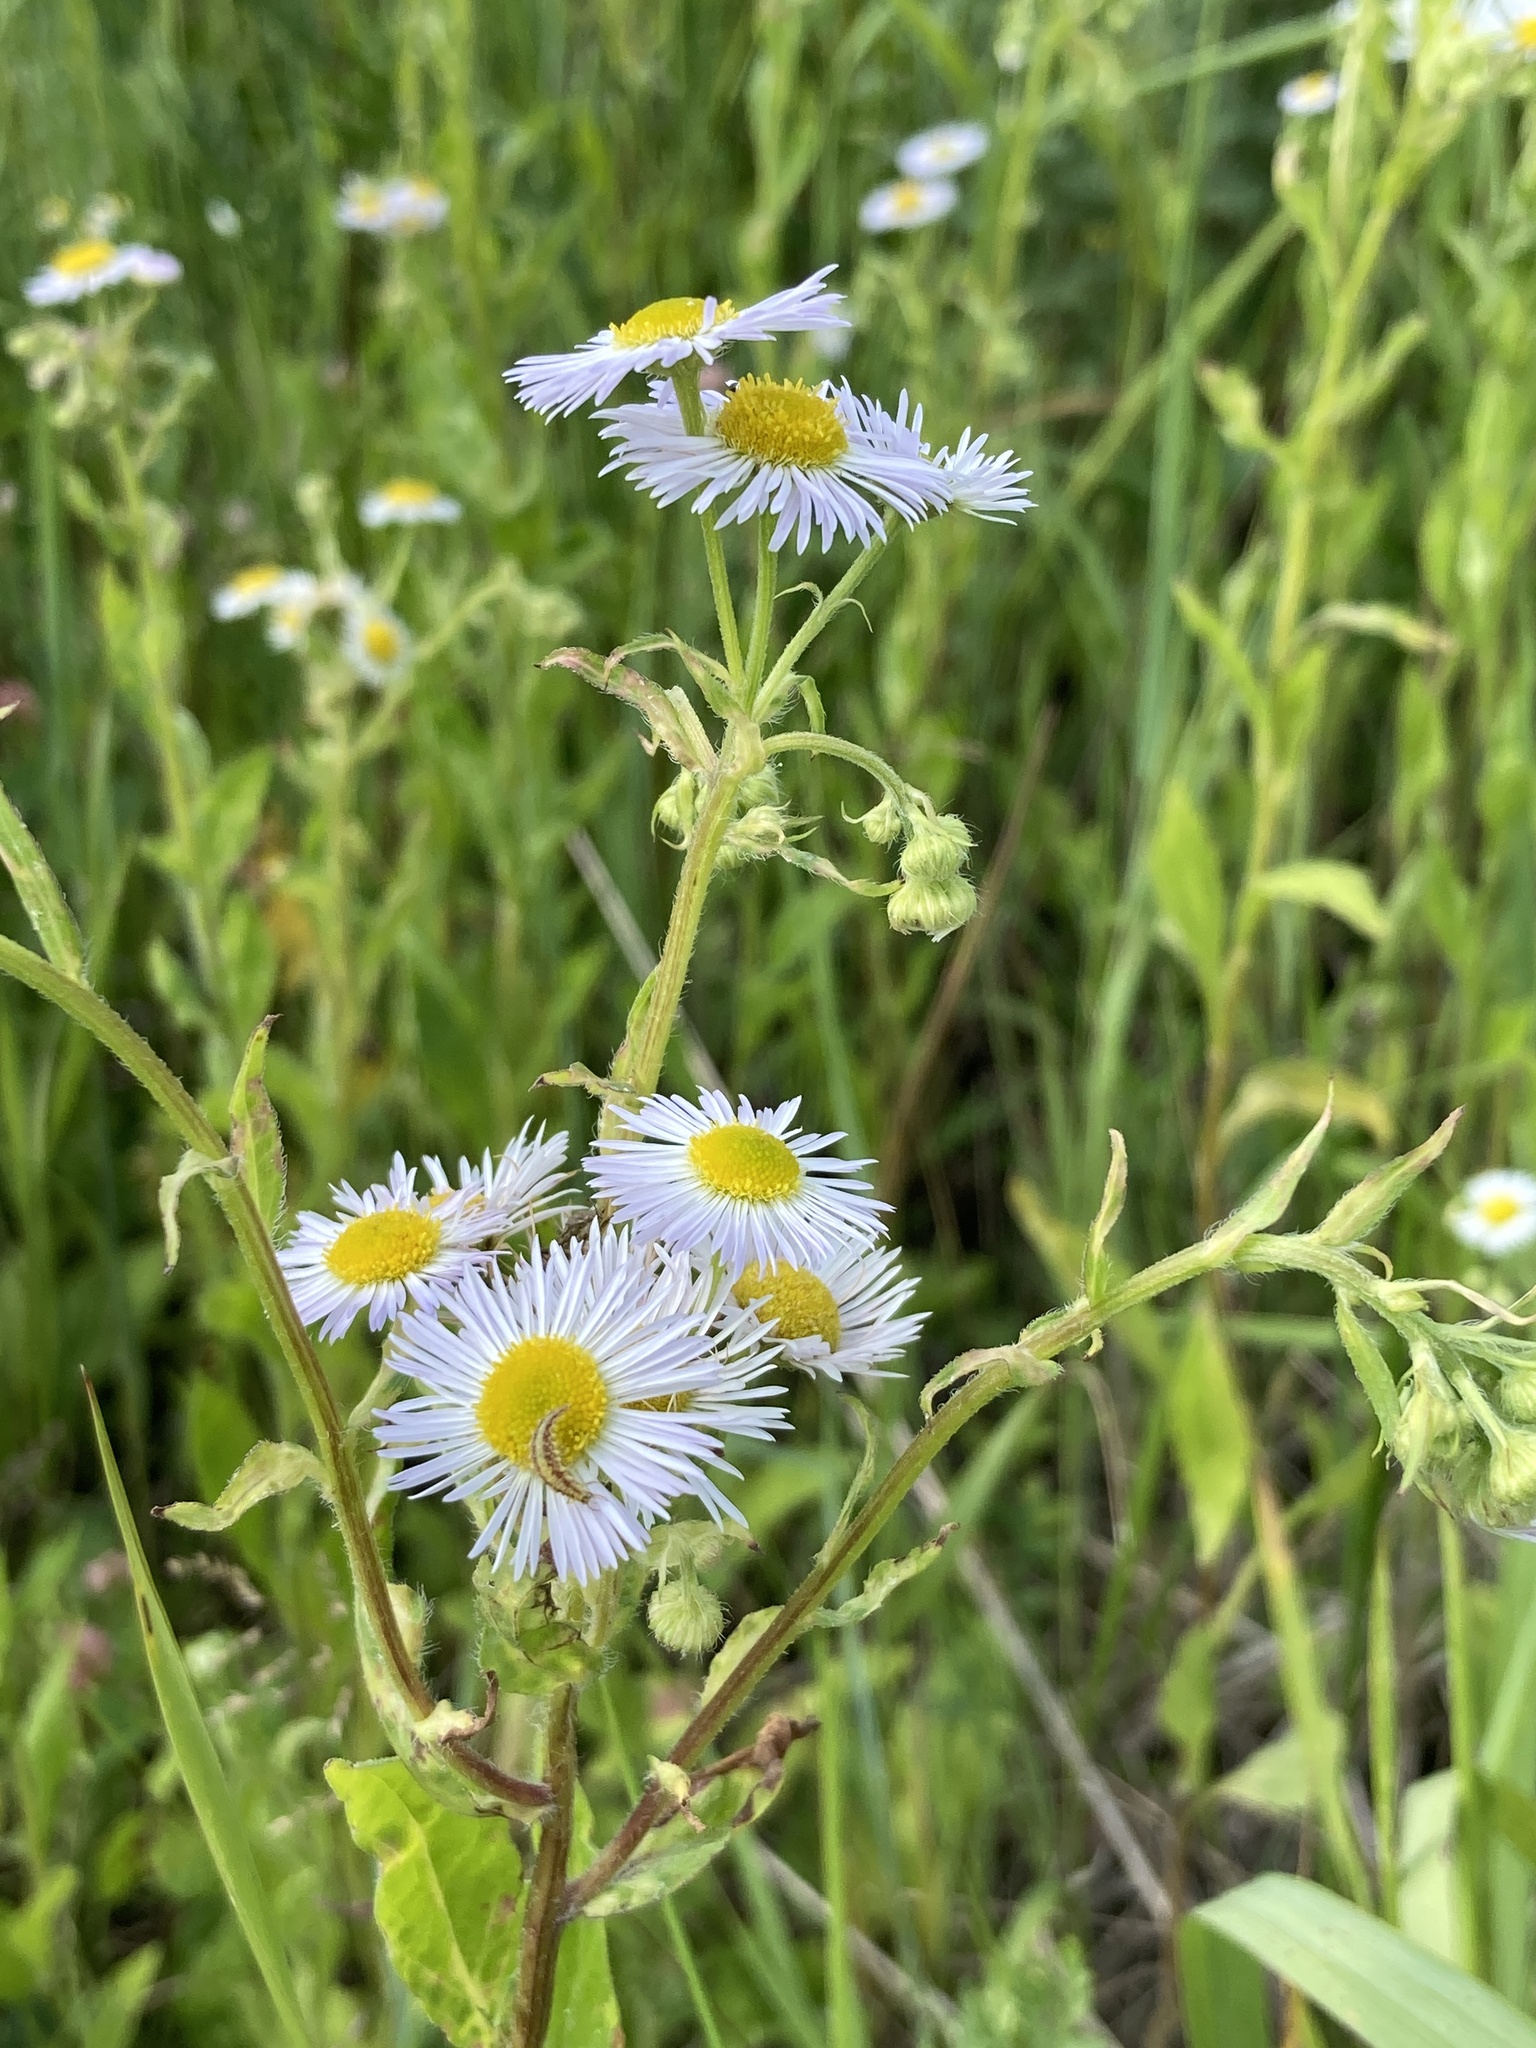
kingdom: Plantae
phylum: Tracheophyta
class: Magnoliopsida
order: Asterales
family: Asteraceae
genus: Erigeron
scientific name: Erigeron annuus
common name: Tall fleabane
